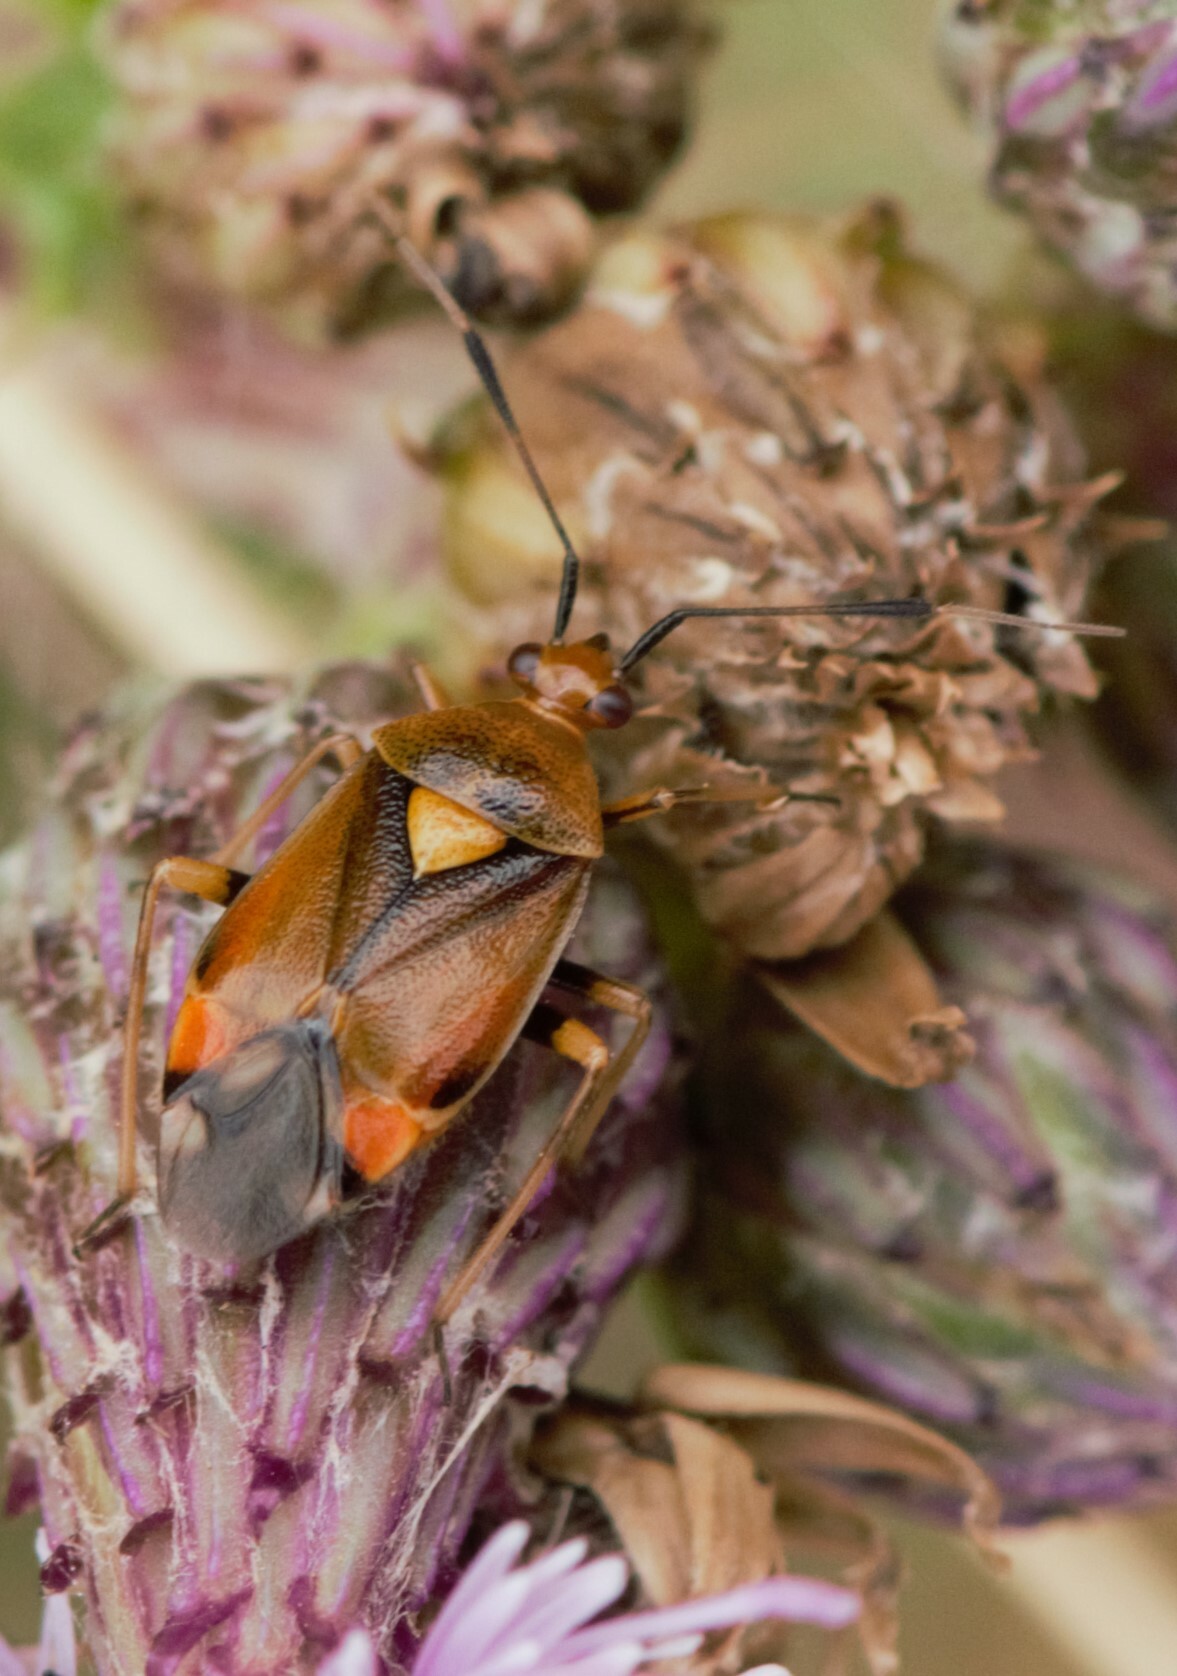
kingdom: Animalia
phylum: Arthropoda
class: Insecta
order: Hemiptera
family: Miridae
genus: Deraeocoris
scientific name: Deraeocoris ruber
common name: Plant bug
